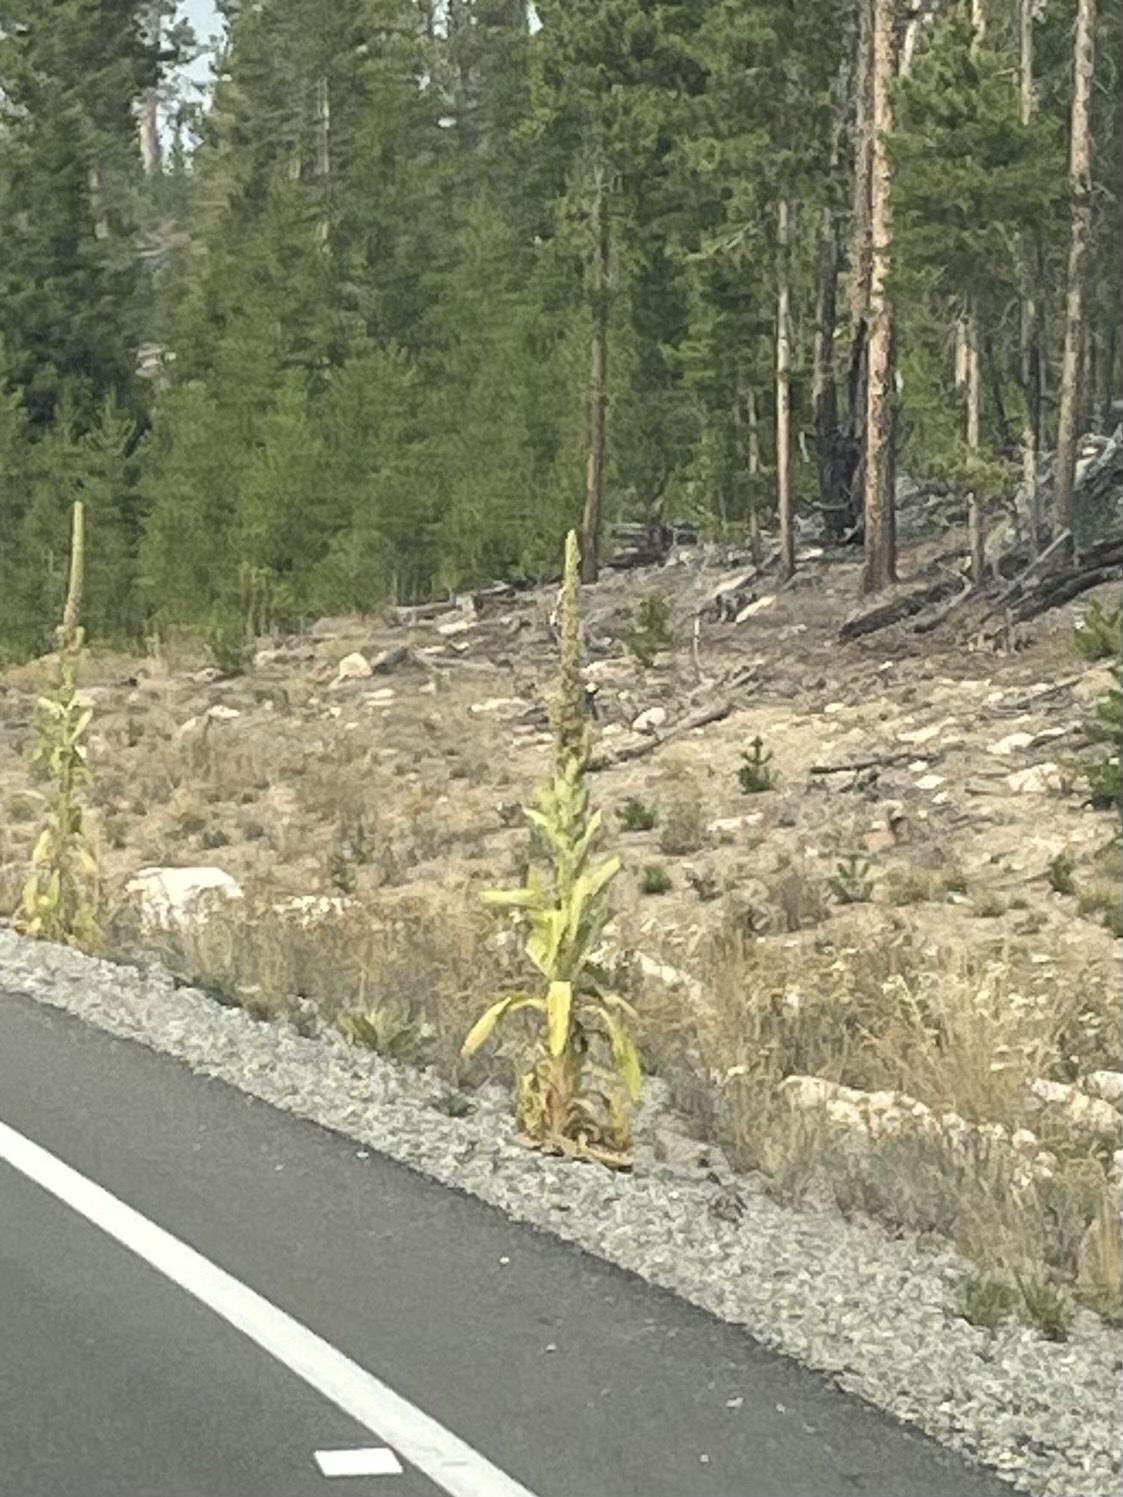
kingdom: Plantae
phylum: Tracheophyta
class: Magnoliopsida
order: Lamiales
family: Scrophulariaceae
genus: Verbascum
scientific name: Verbascum thapsus
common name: Common mullein
